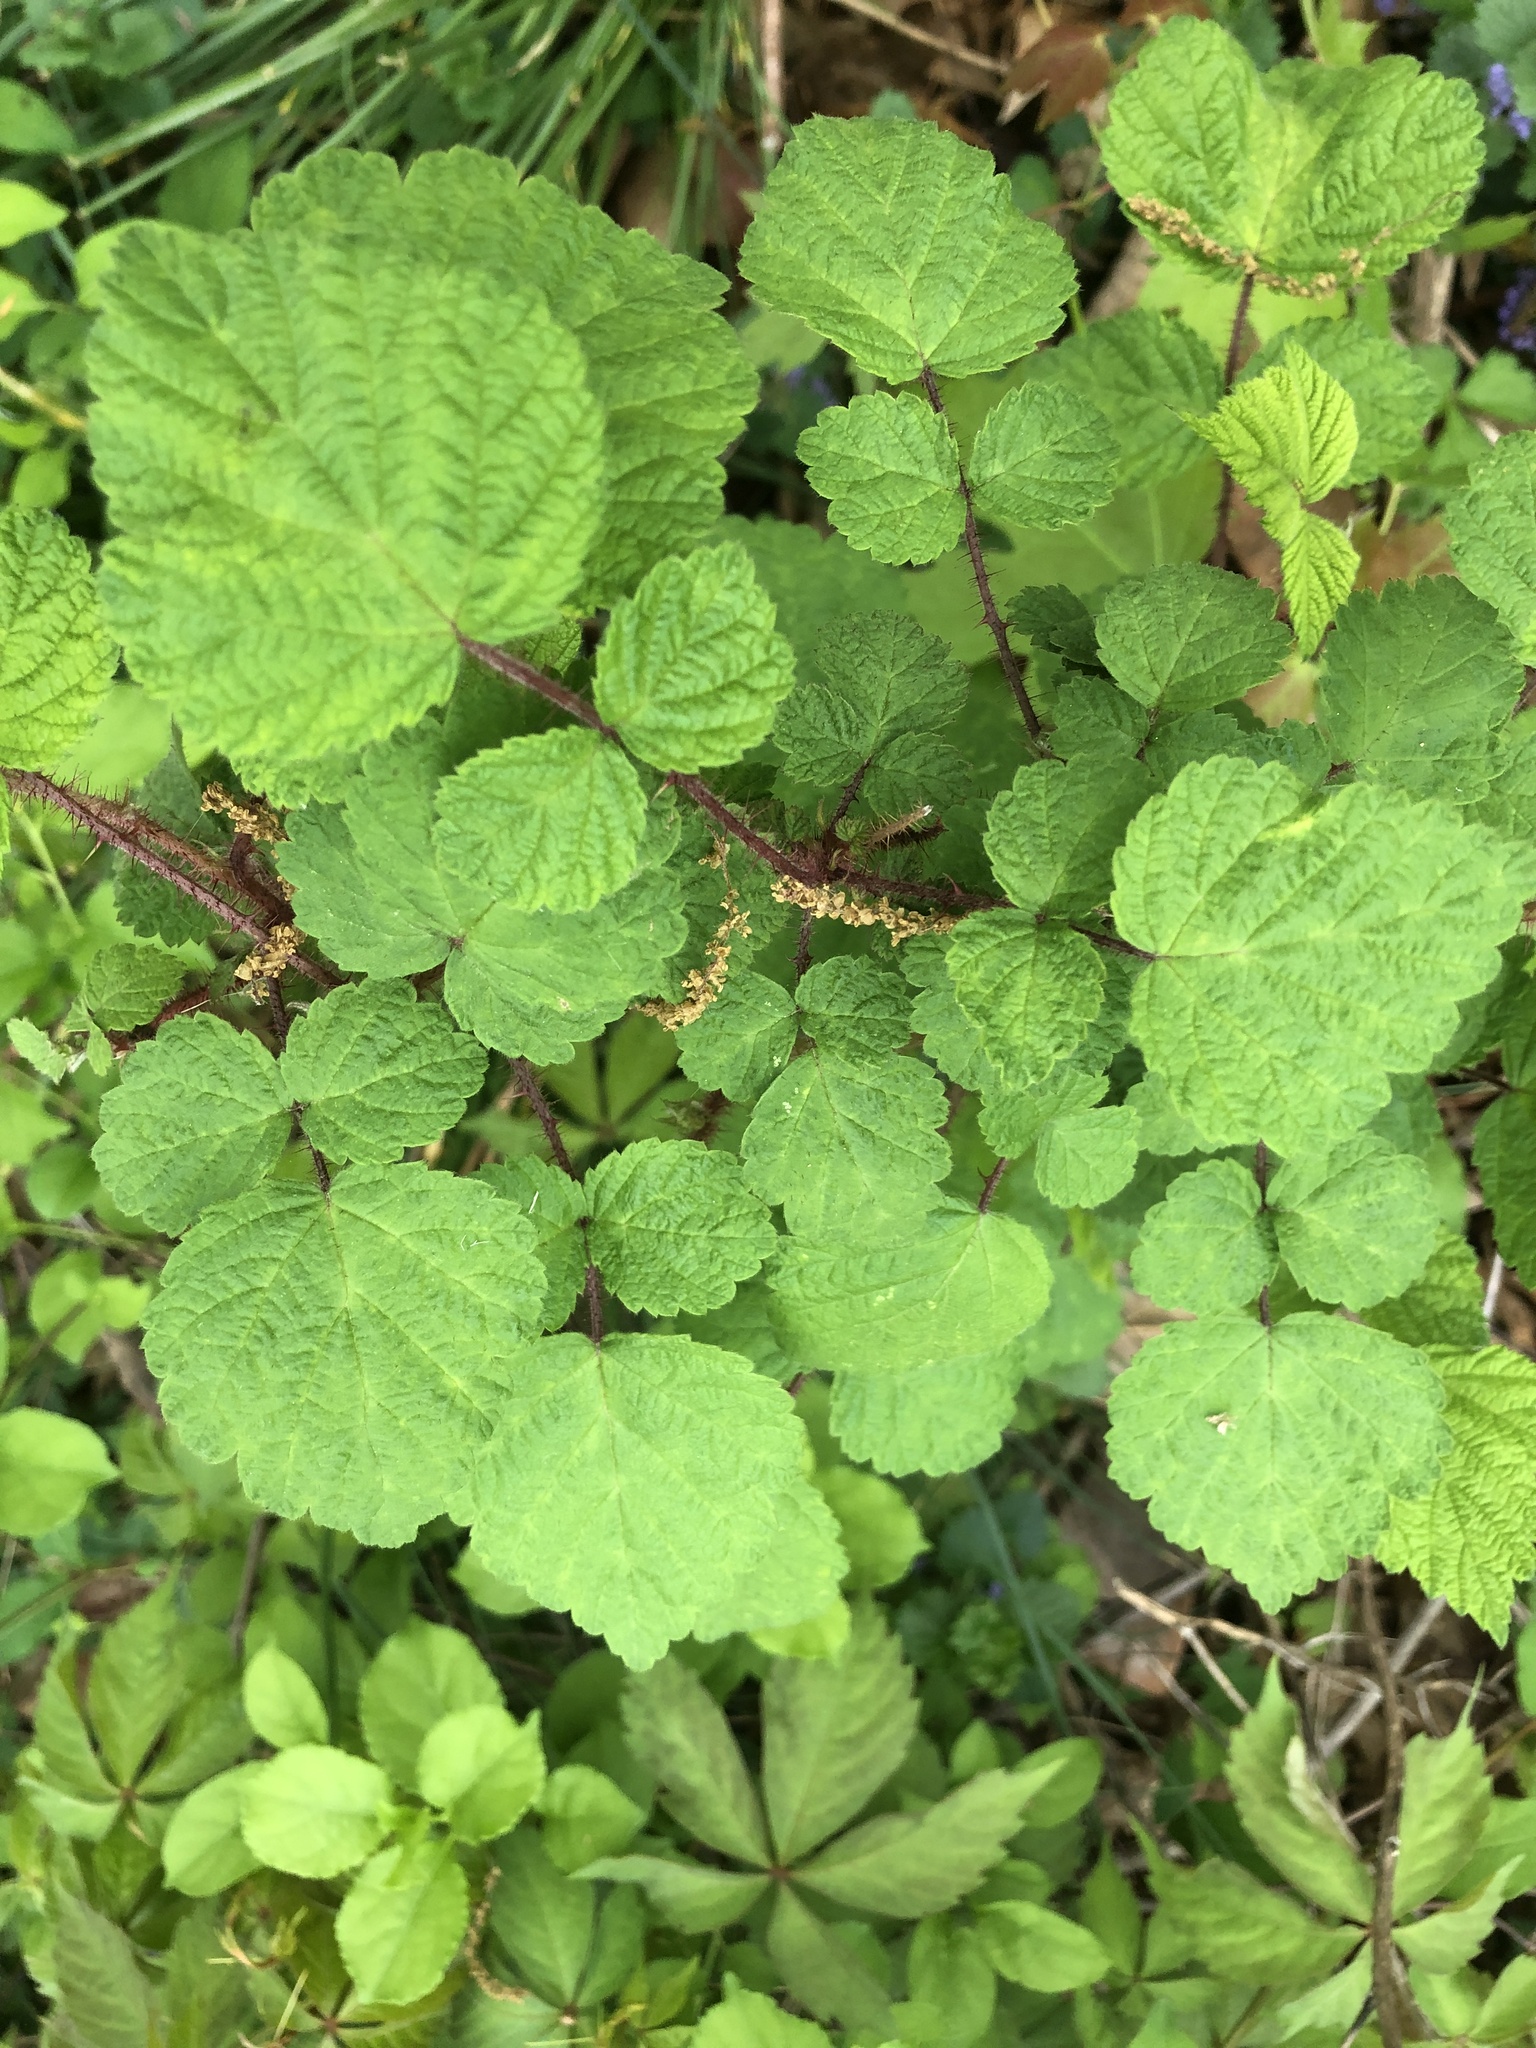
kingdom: Plantae
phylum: Tracheophyta
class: Magnoliopsida
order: Rosales
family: Rosaceae
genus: Rubus
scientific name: Rubus phoenicolasius
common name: Japanese wineberry
